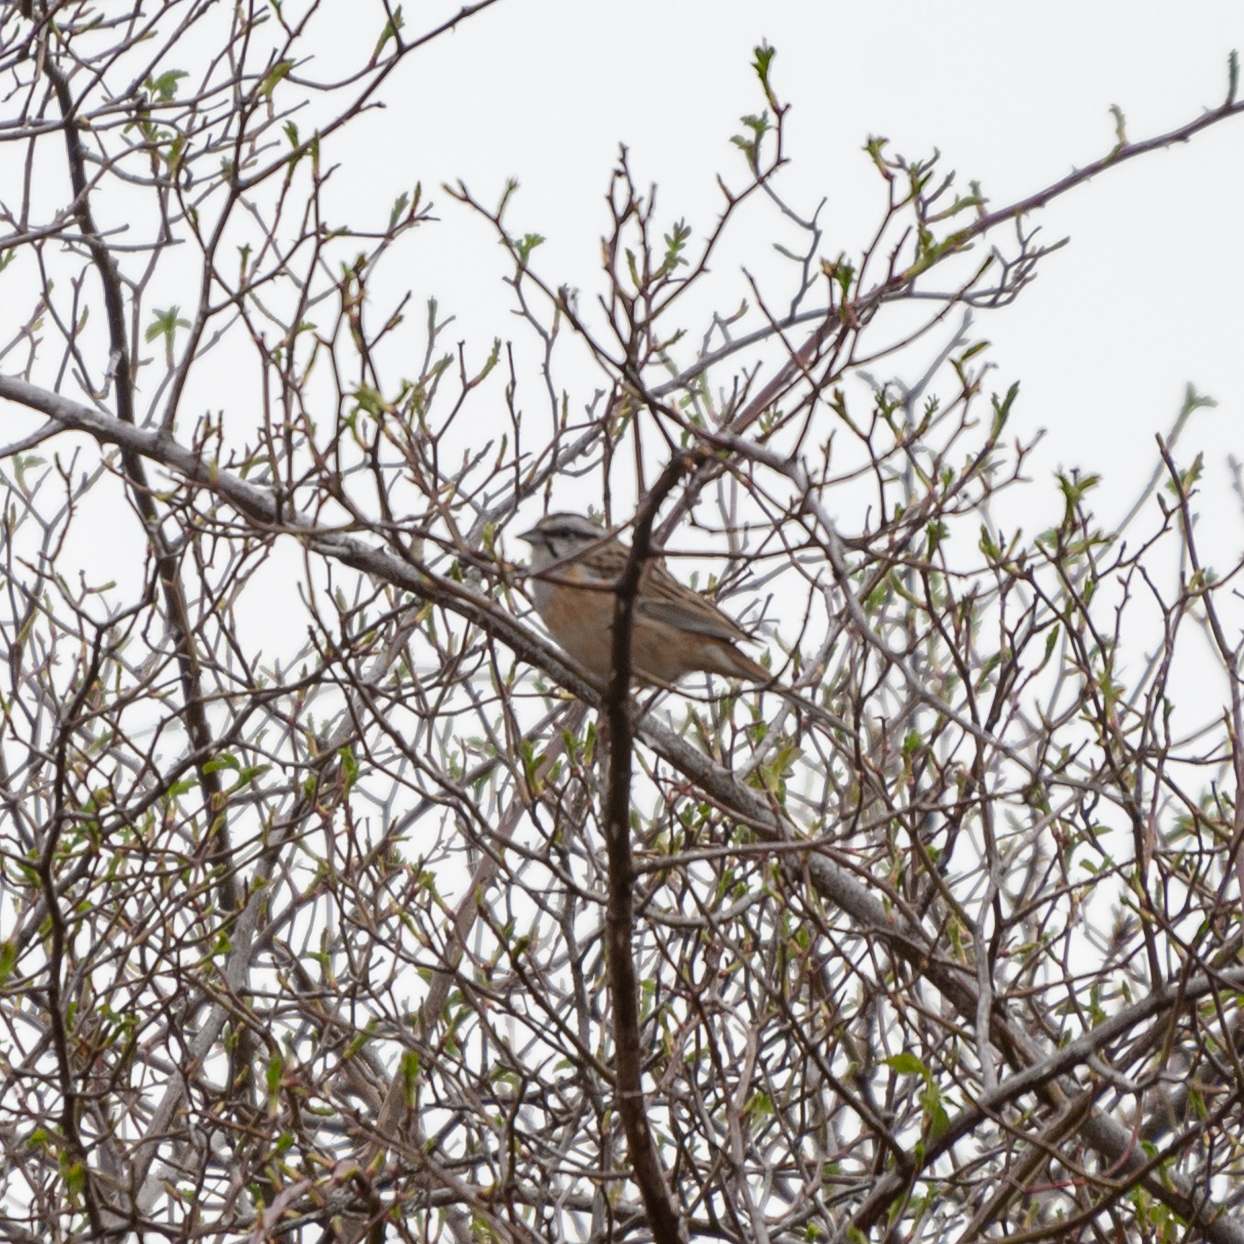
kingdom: Animalia
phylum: Chordata
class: Aves
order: Passeriformes
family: Emberizidae
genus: Emberiza
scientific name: Emberiza cia
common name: Rock bunting
